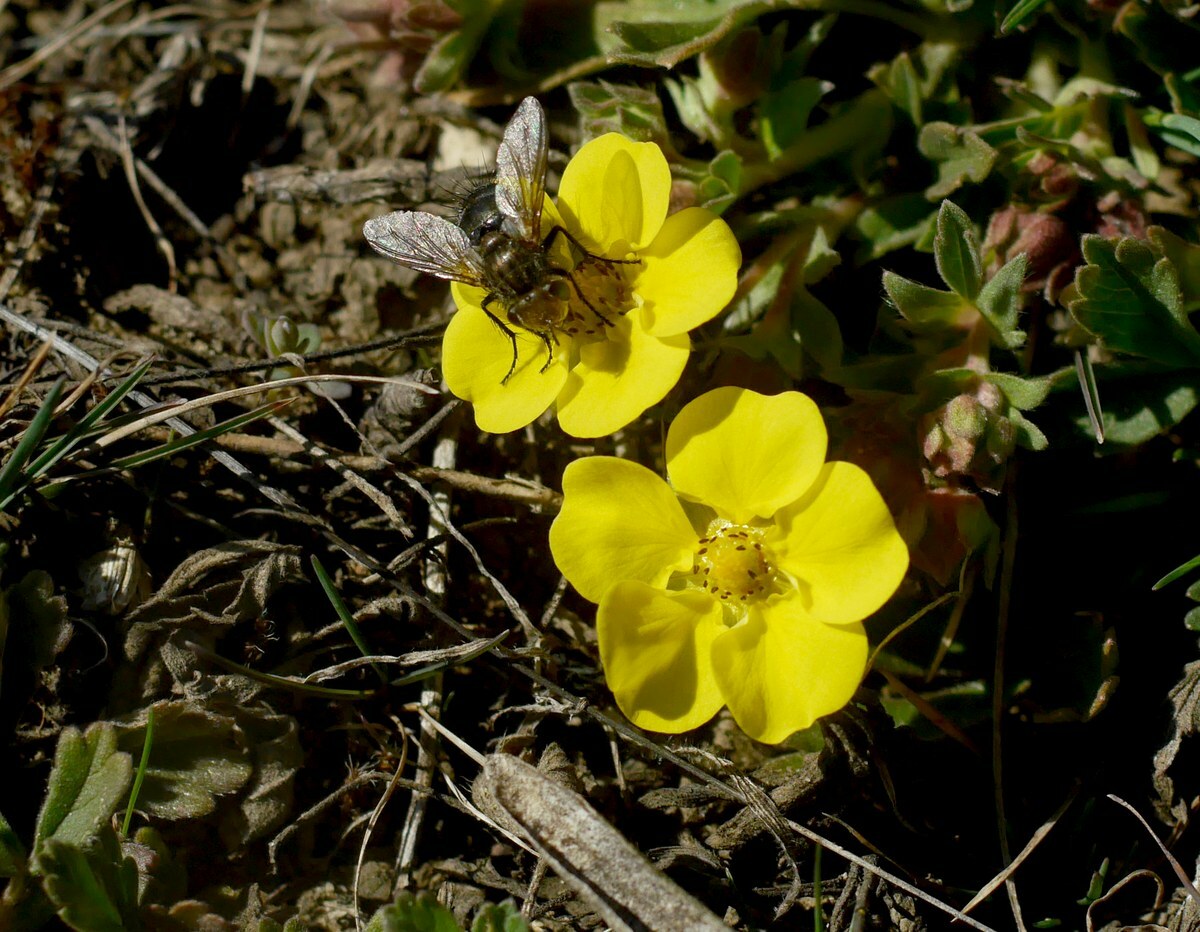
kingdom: Plantae
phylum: Tracheophyta
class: Magnoliopsida
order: Rosales
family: Rosaceae
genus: Potentilla
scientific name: Potentilla incana
